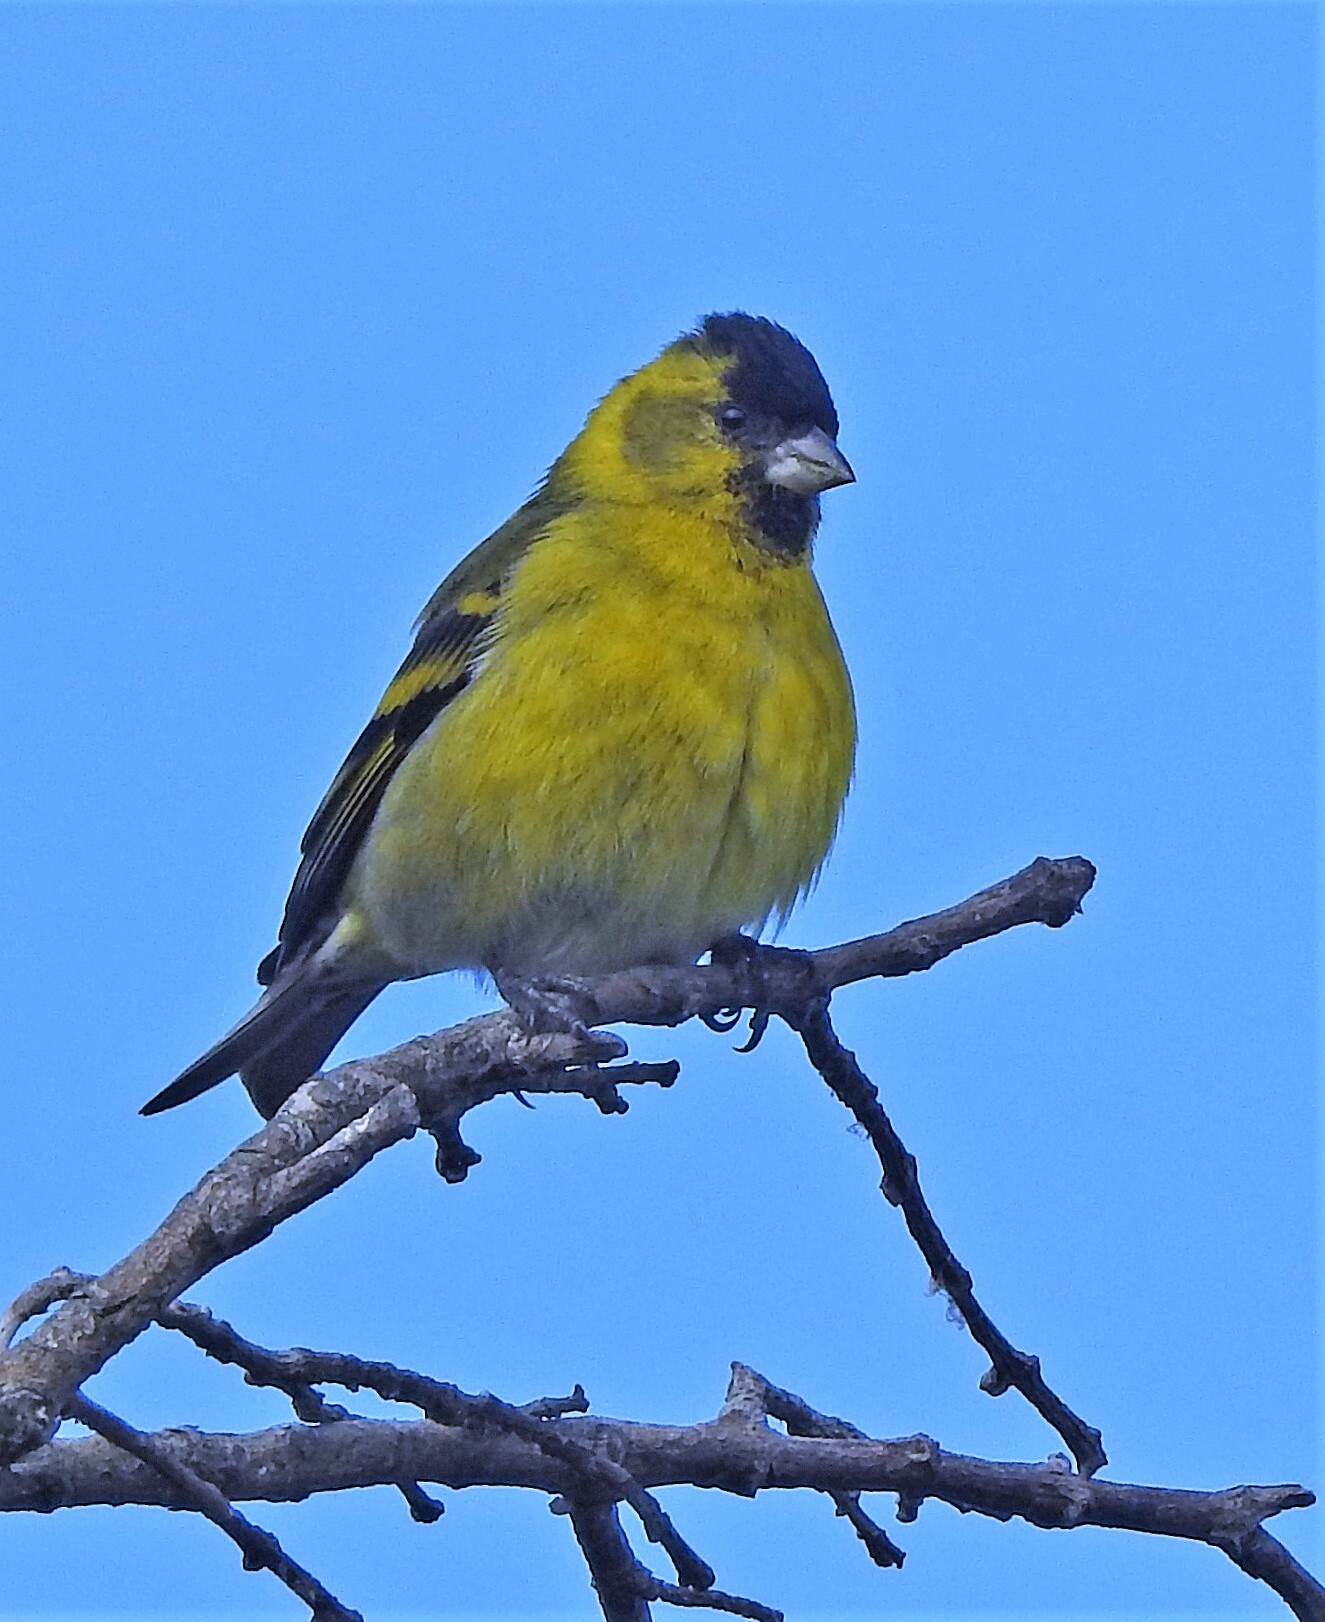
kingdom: Animalia
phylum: Chordata
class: Aves
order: Passeriformes
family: Fringillidae
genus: Spinus
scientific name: Spinus barbatus
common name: Black-chinned siskin
